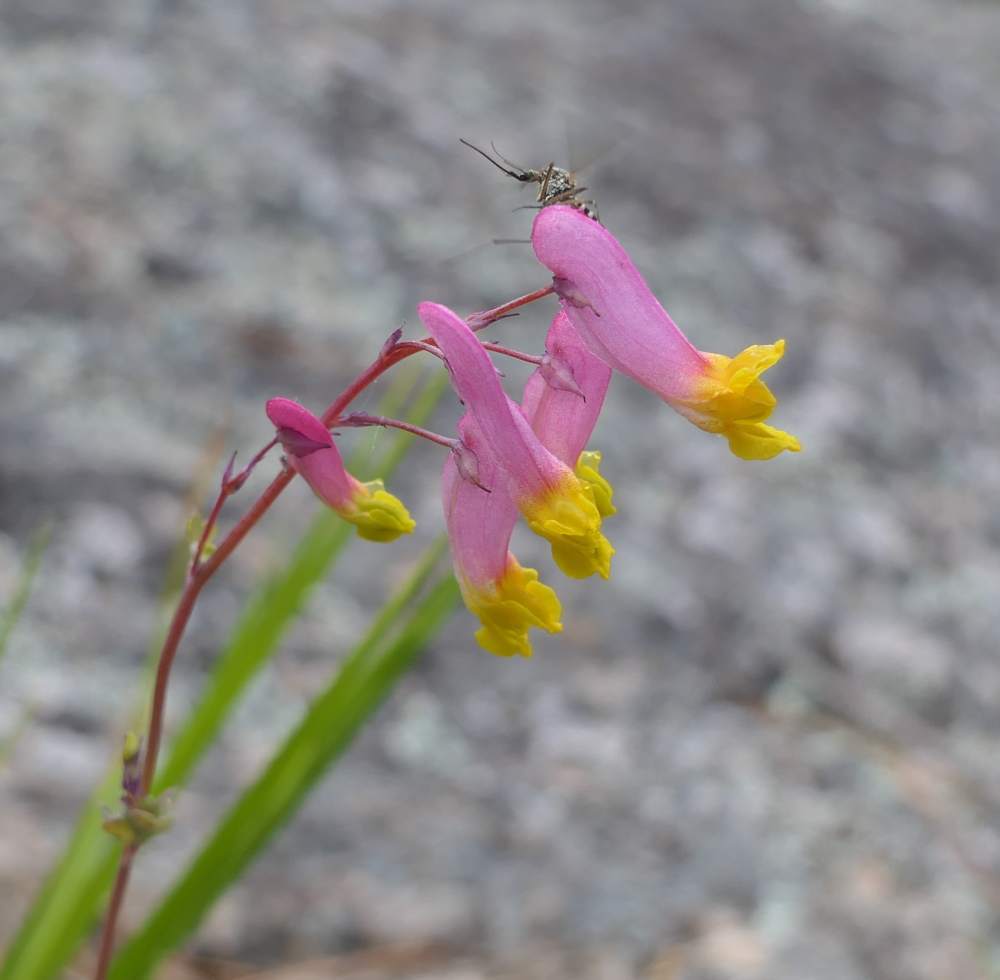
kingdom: Plantae
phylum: Tracheophyta
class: Magnoliopsida
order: Ranunculales
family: Papaveraceae
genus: Capnoides
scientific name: Capnoides sempervirens
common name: Rock harlequin
